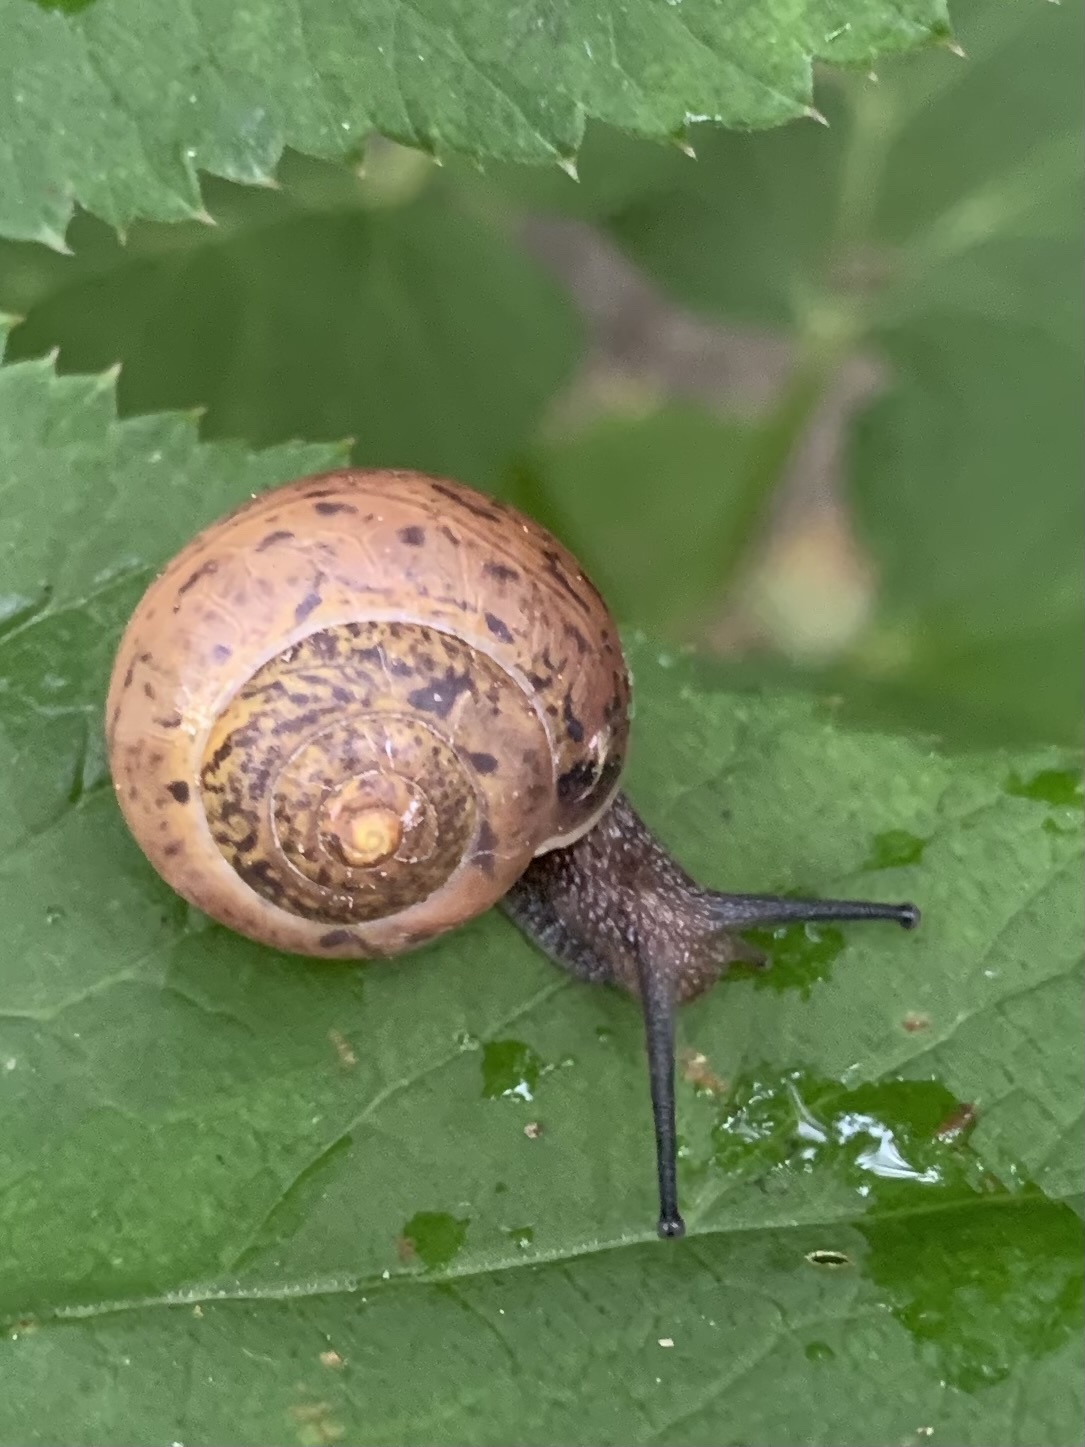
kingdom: Animalia
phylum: Mollusca
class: Gastropoda
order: Stylommatophora
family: Camaenidae
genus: Fruticicola
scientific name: Fruticicola fruticum
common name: Bush snail
